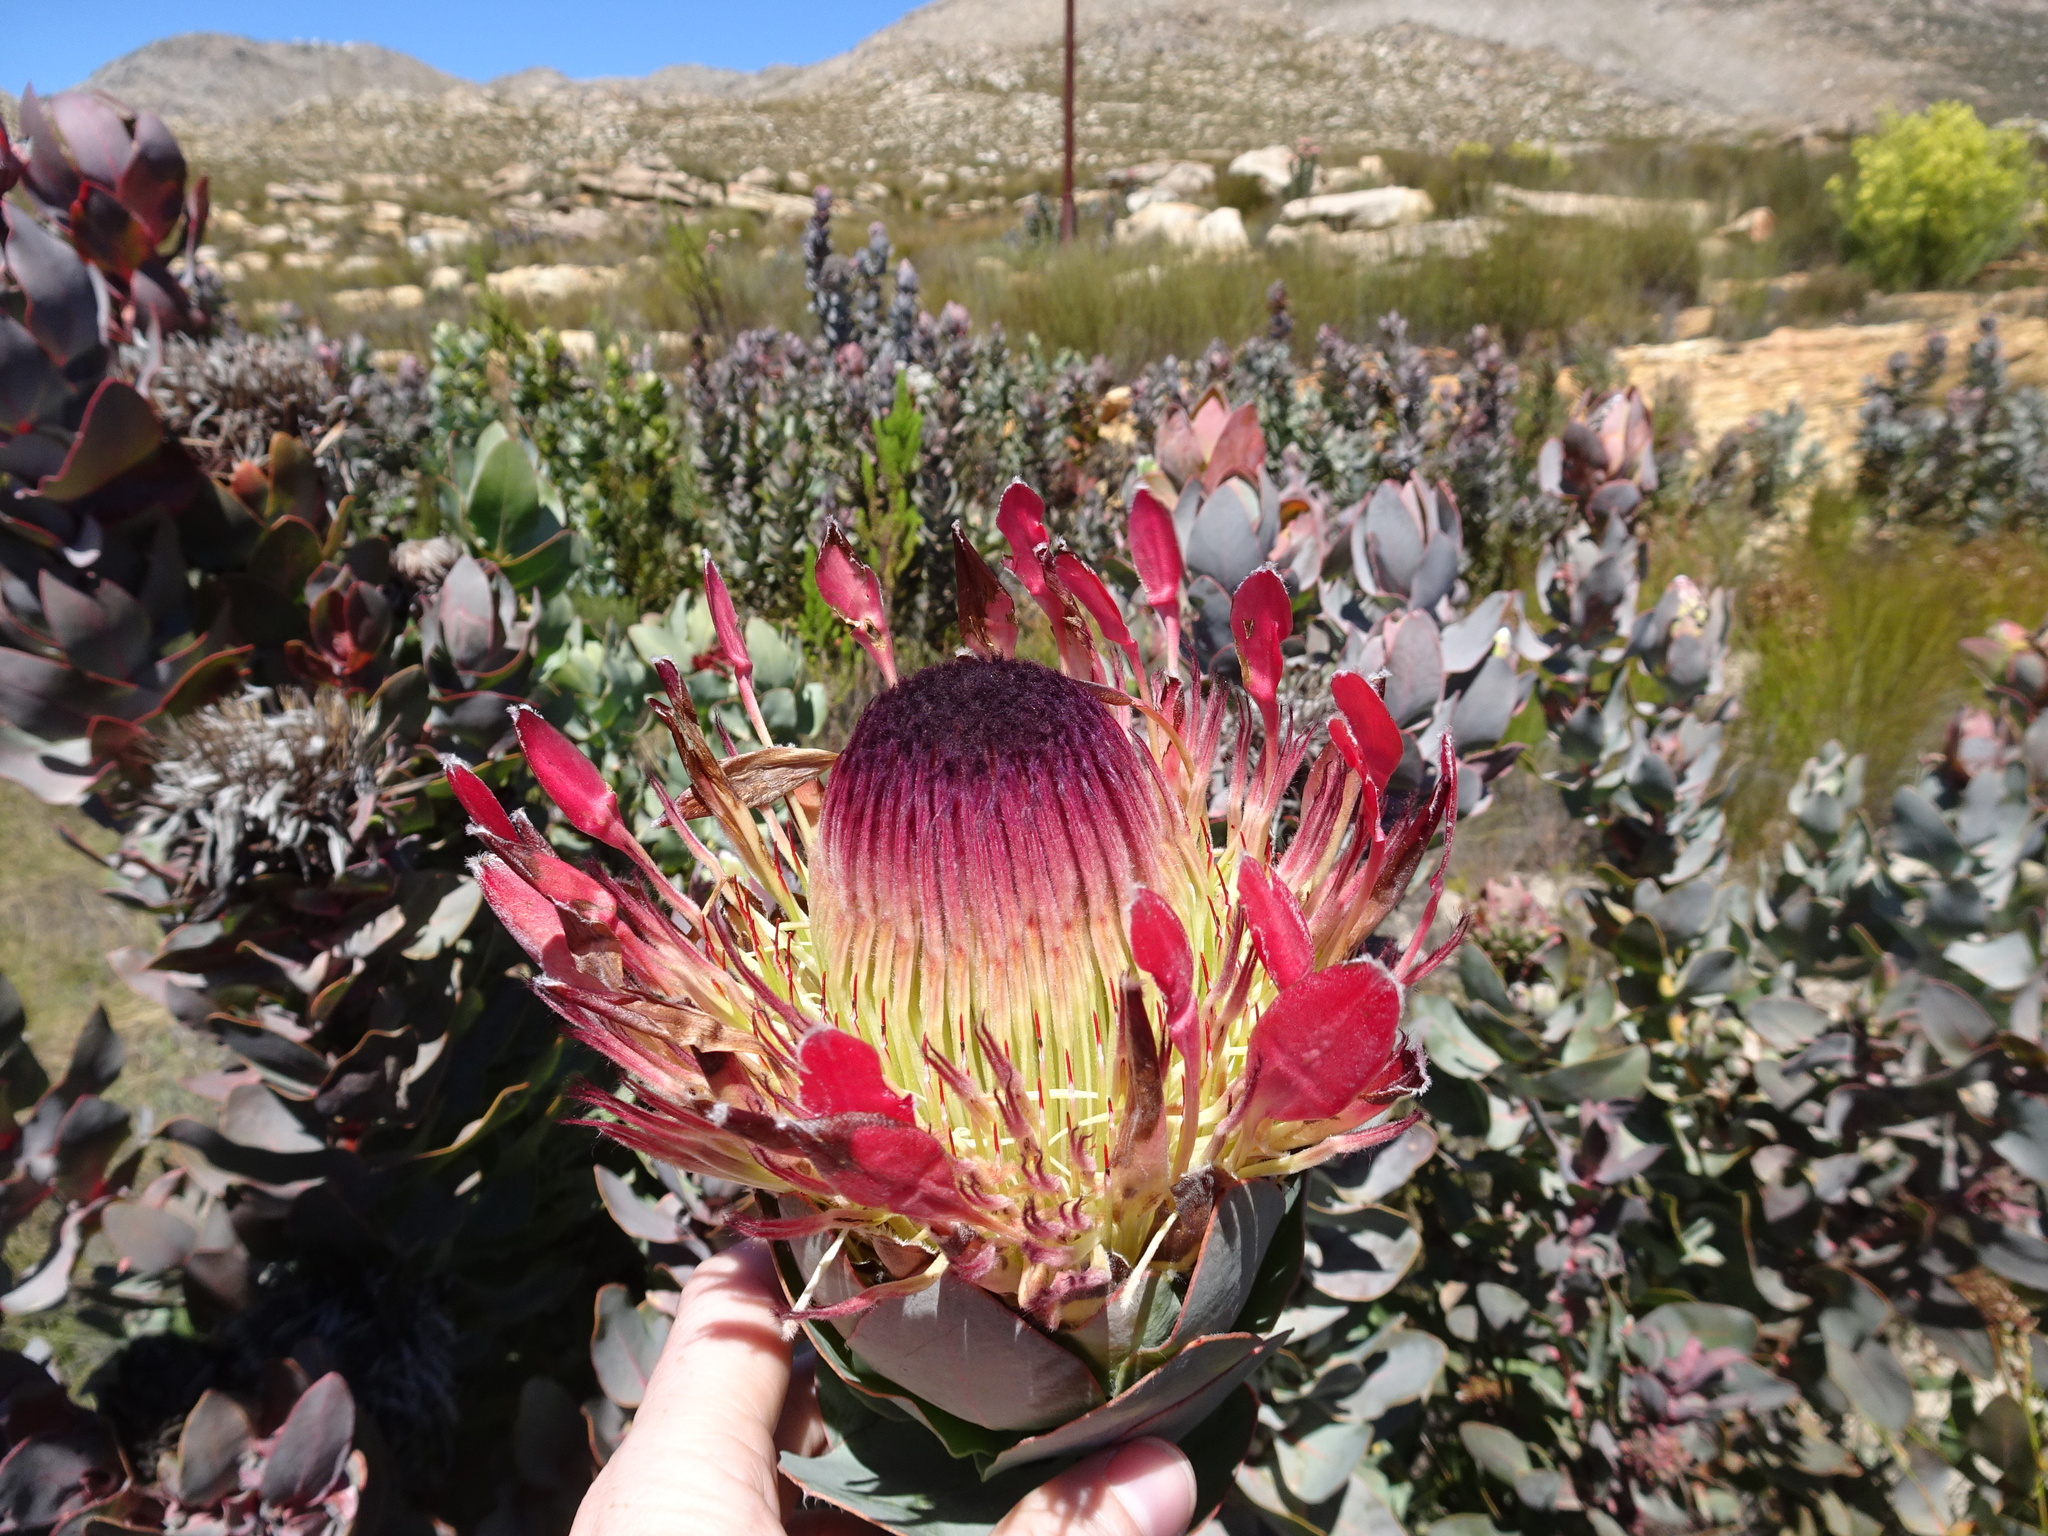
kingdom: Plantae
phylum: Tracheophyta
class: Magnoliopsida
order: Proteales
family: Proteaceae
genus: Protea
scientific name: Protea eximia
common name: Broad-leaved sugarbush
